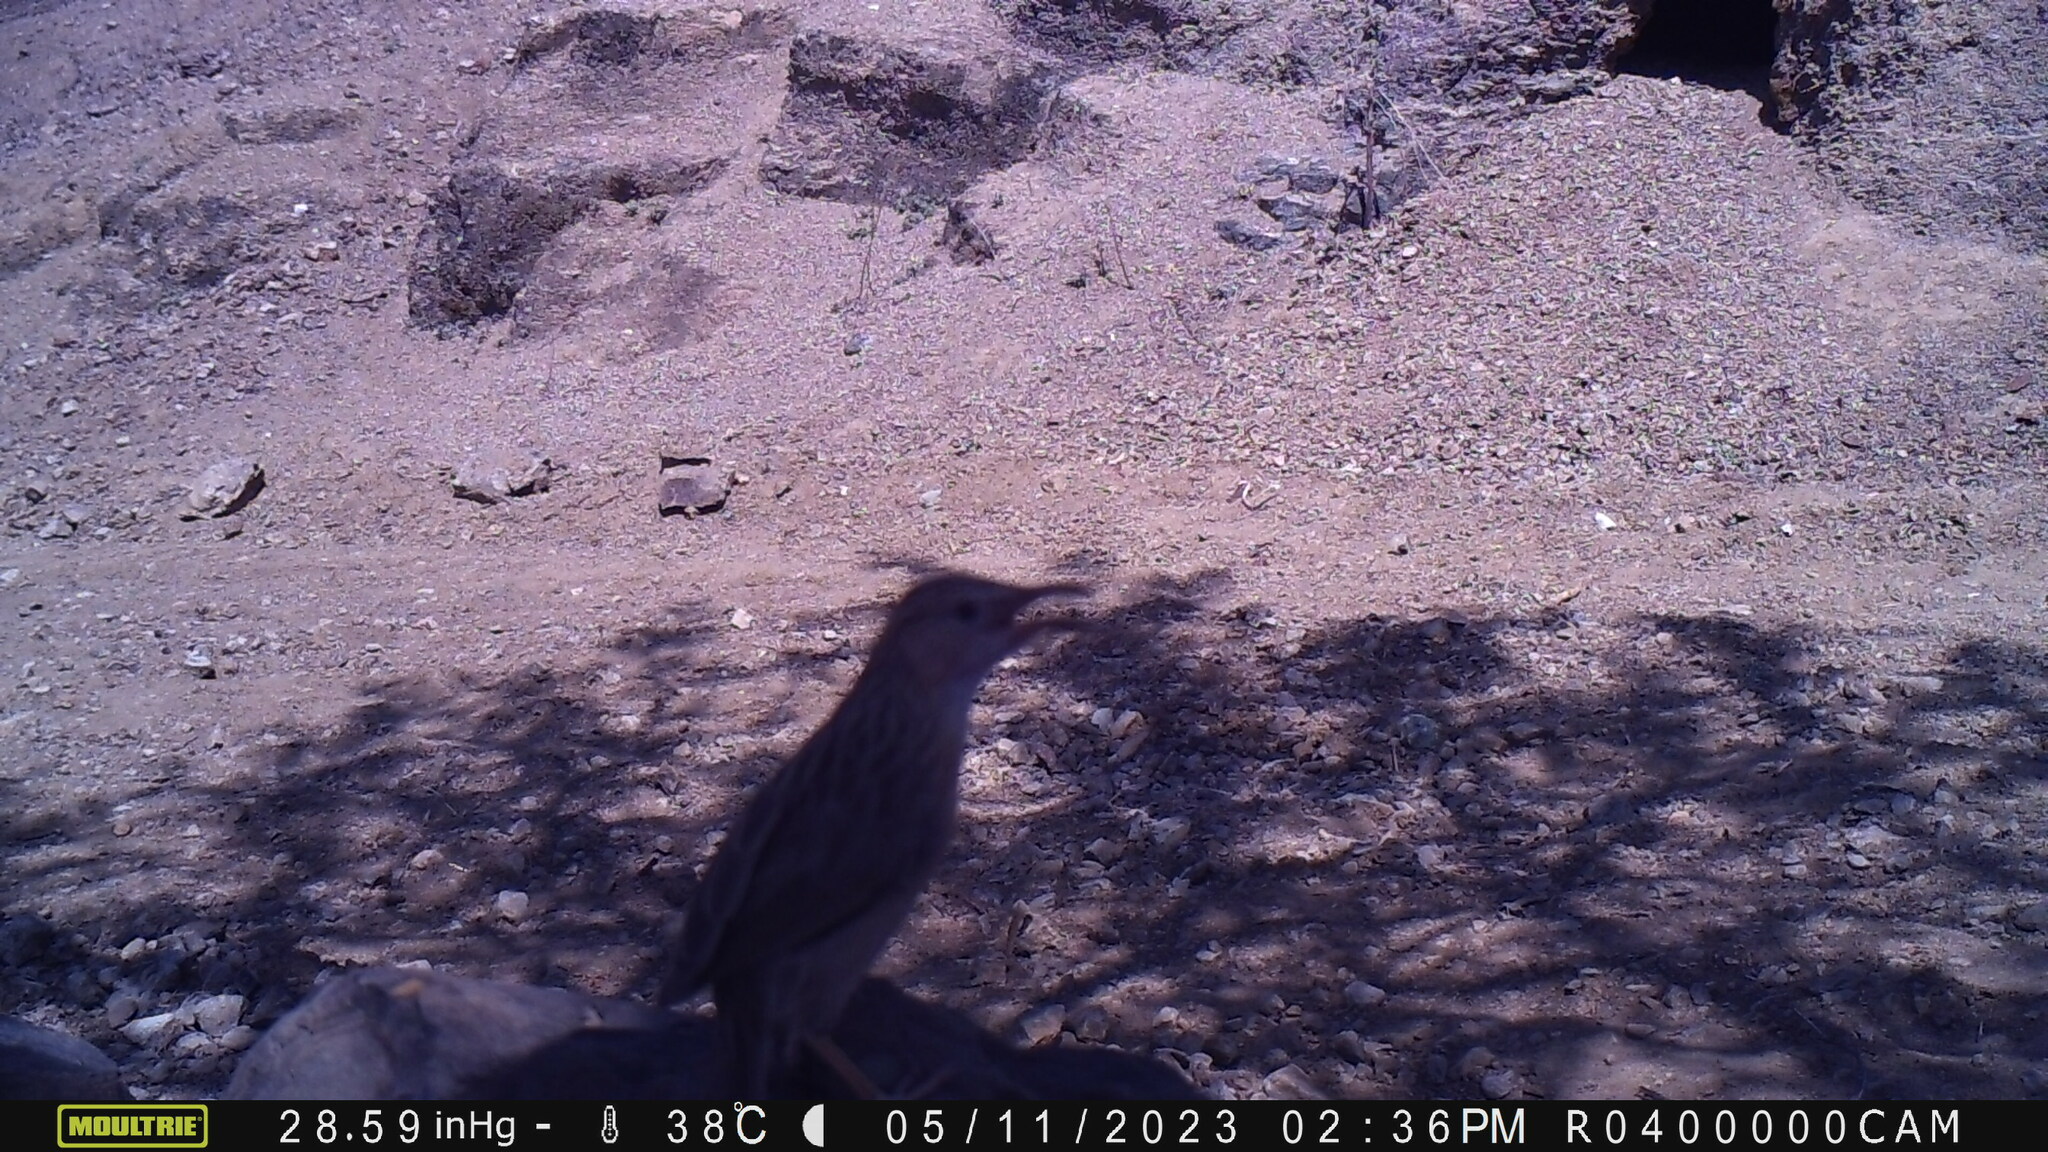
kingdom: Animalia
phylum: Chordata
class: Aves
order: Passeriformes
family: Leiothrichidae
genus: Turdoides
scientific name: Turdoides caudata
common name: Common babbler
